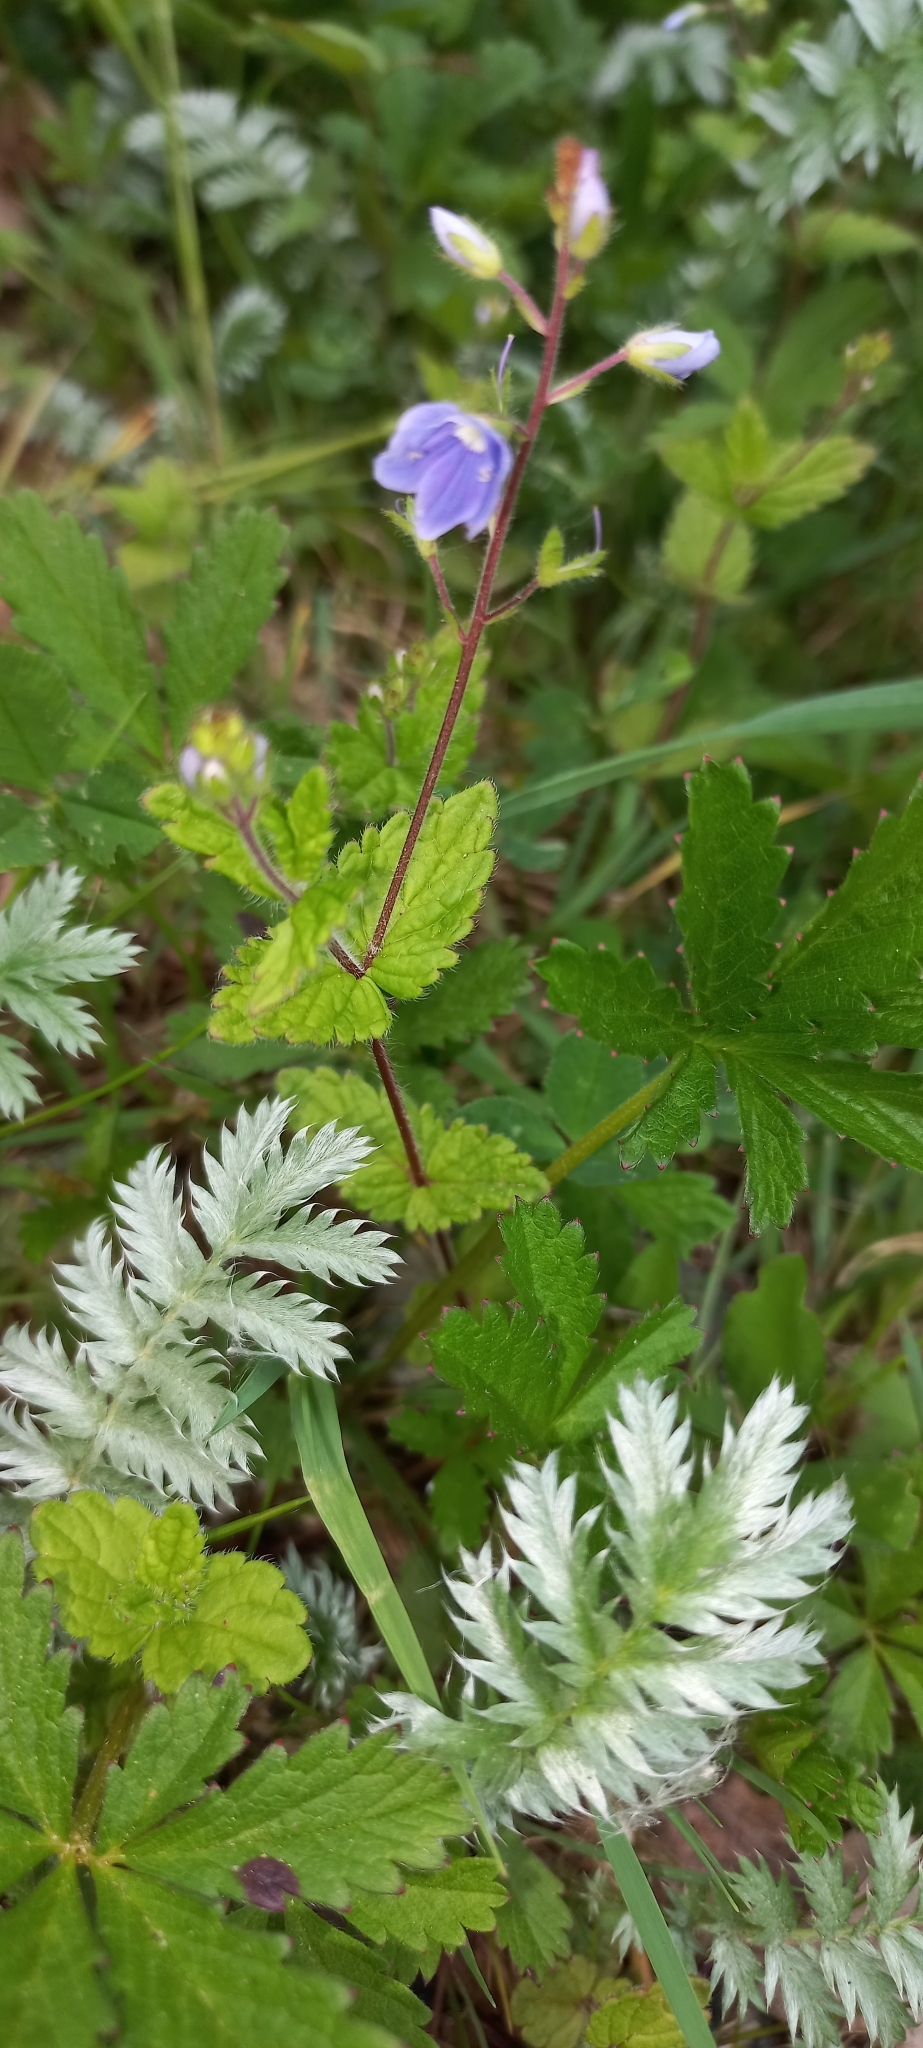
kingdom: Plantae
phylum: Tracheophyta
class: Magnoliopsida
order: Lamiales
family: Plantaginaceae
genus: Veronica
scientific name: Veronica chamaedrys
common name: Germander speedwell
